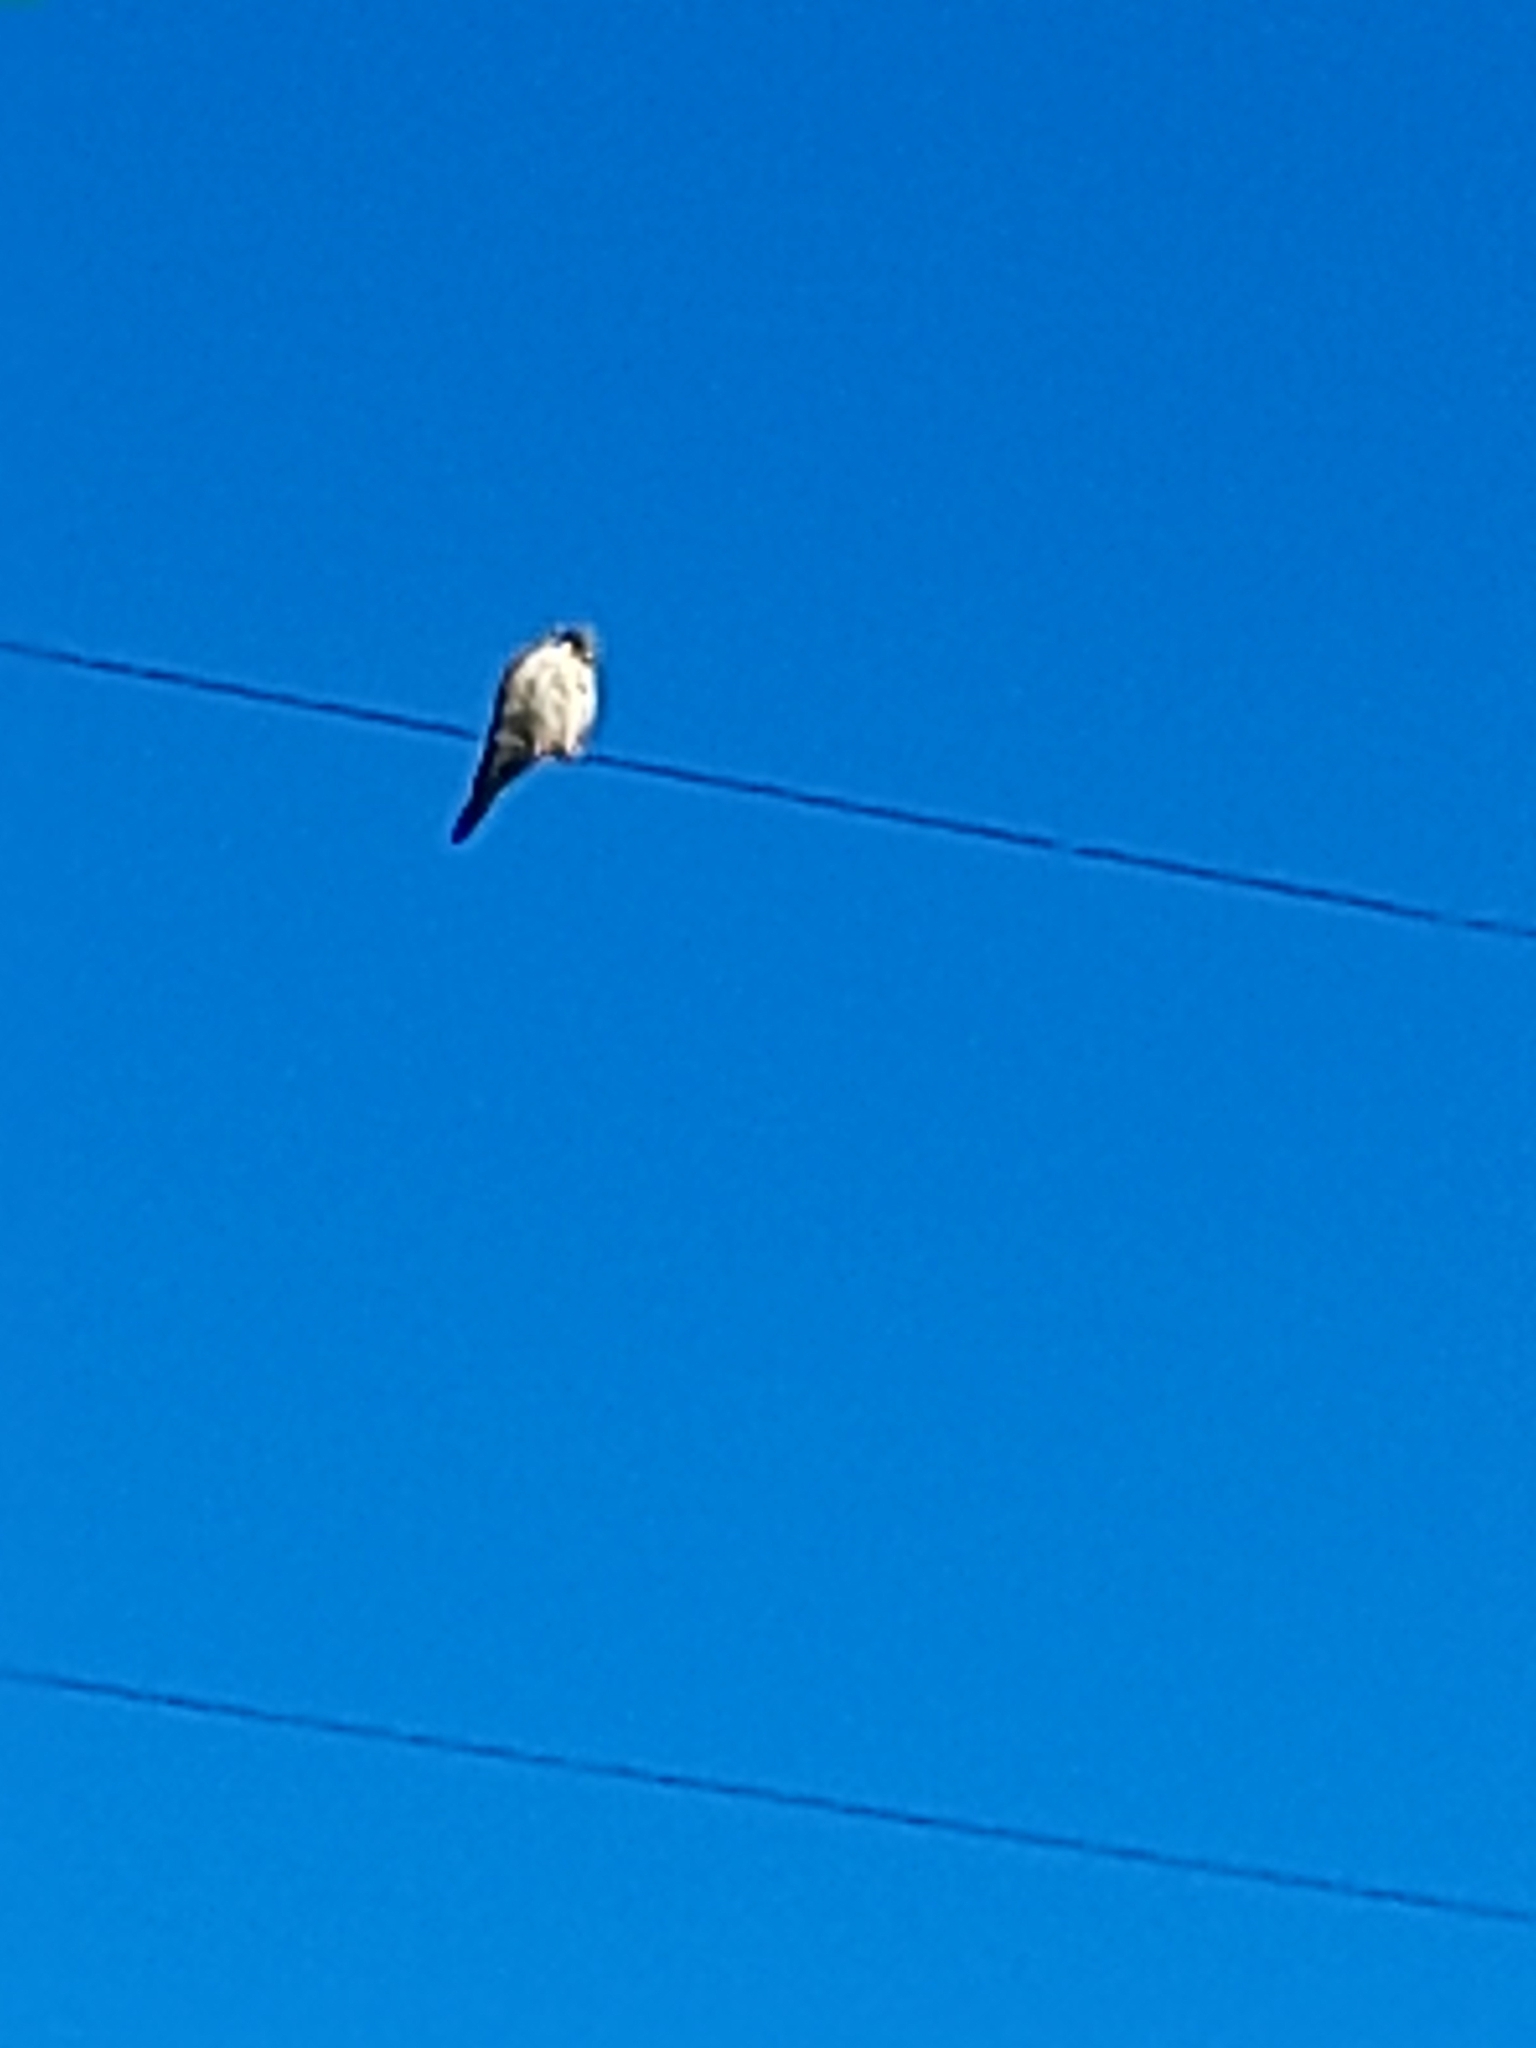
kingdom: Animalia
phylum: Chordata
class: Aves
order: Falconiformes
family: Falconidae
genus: Falco
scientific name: Falco sparverius
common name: American kestrel
